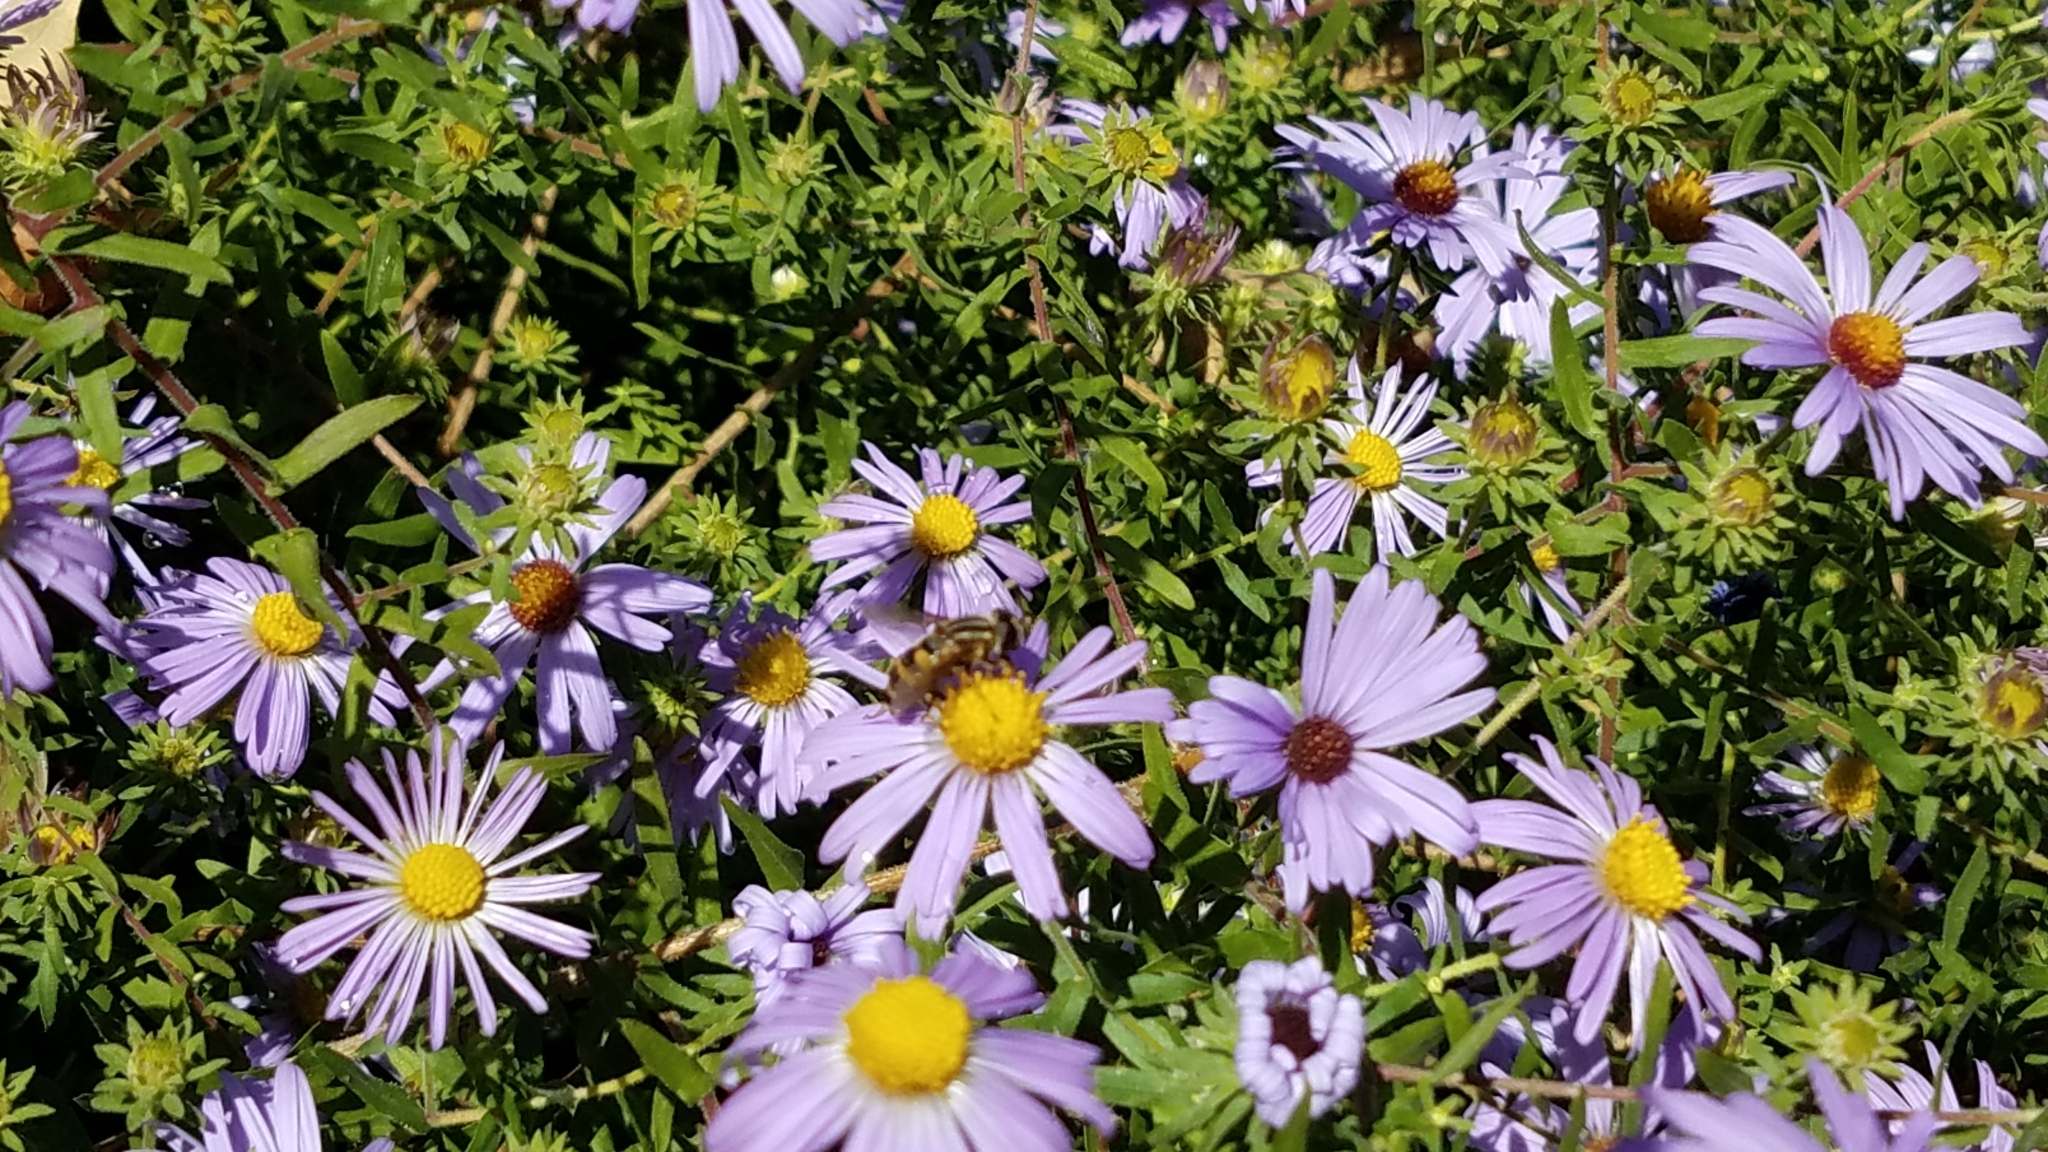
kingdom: Animalia
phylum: Arthropoda
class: Insecta
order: Diptera
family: Syrphidae
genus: Helophilus
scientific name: Helophilus fasciatus
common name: Narrow-headed marsh fly
